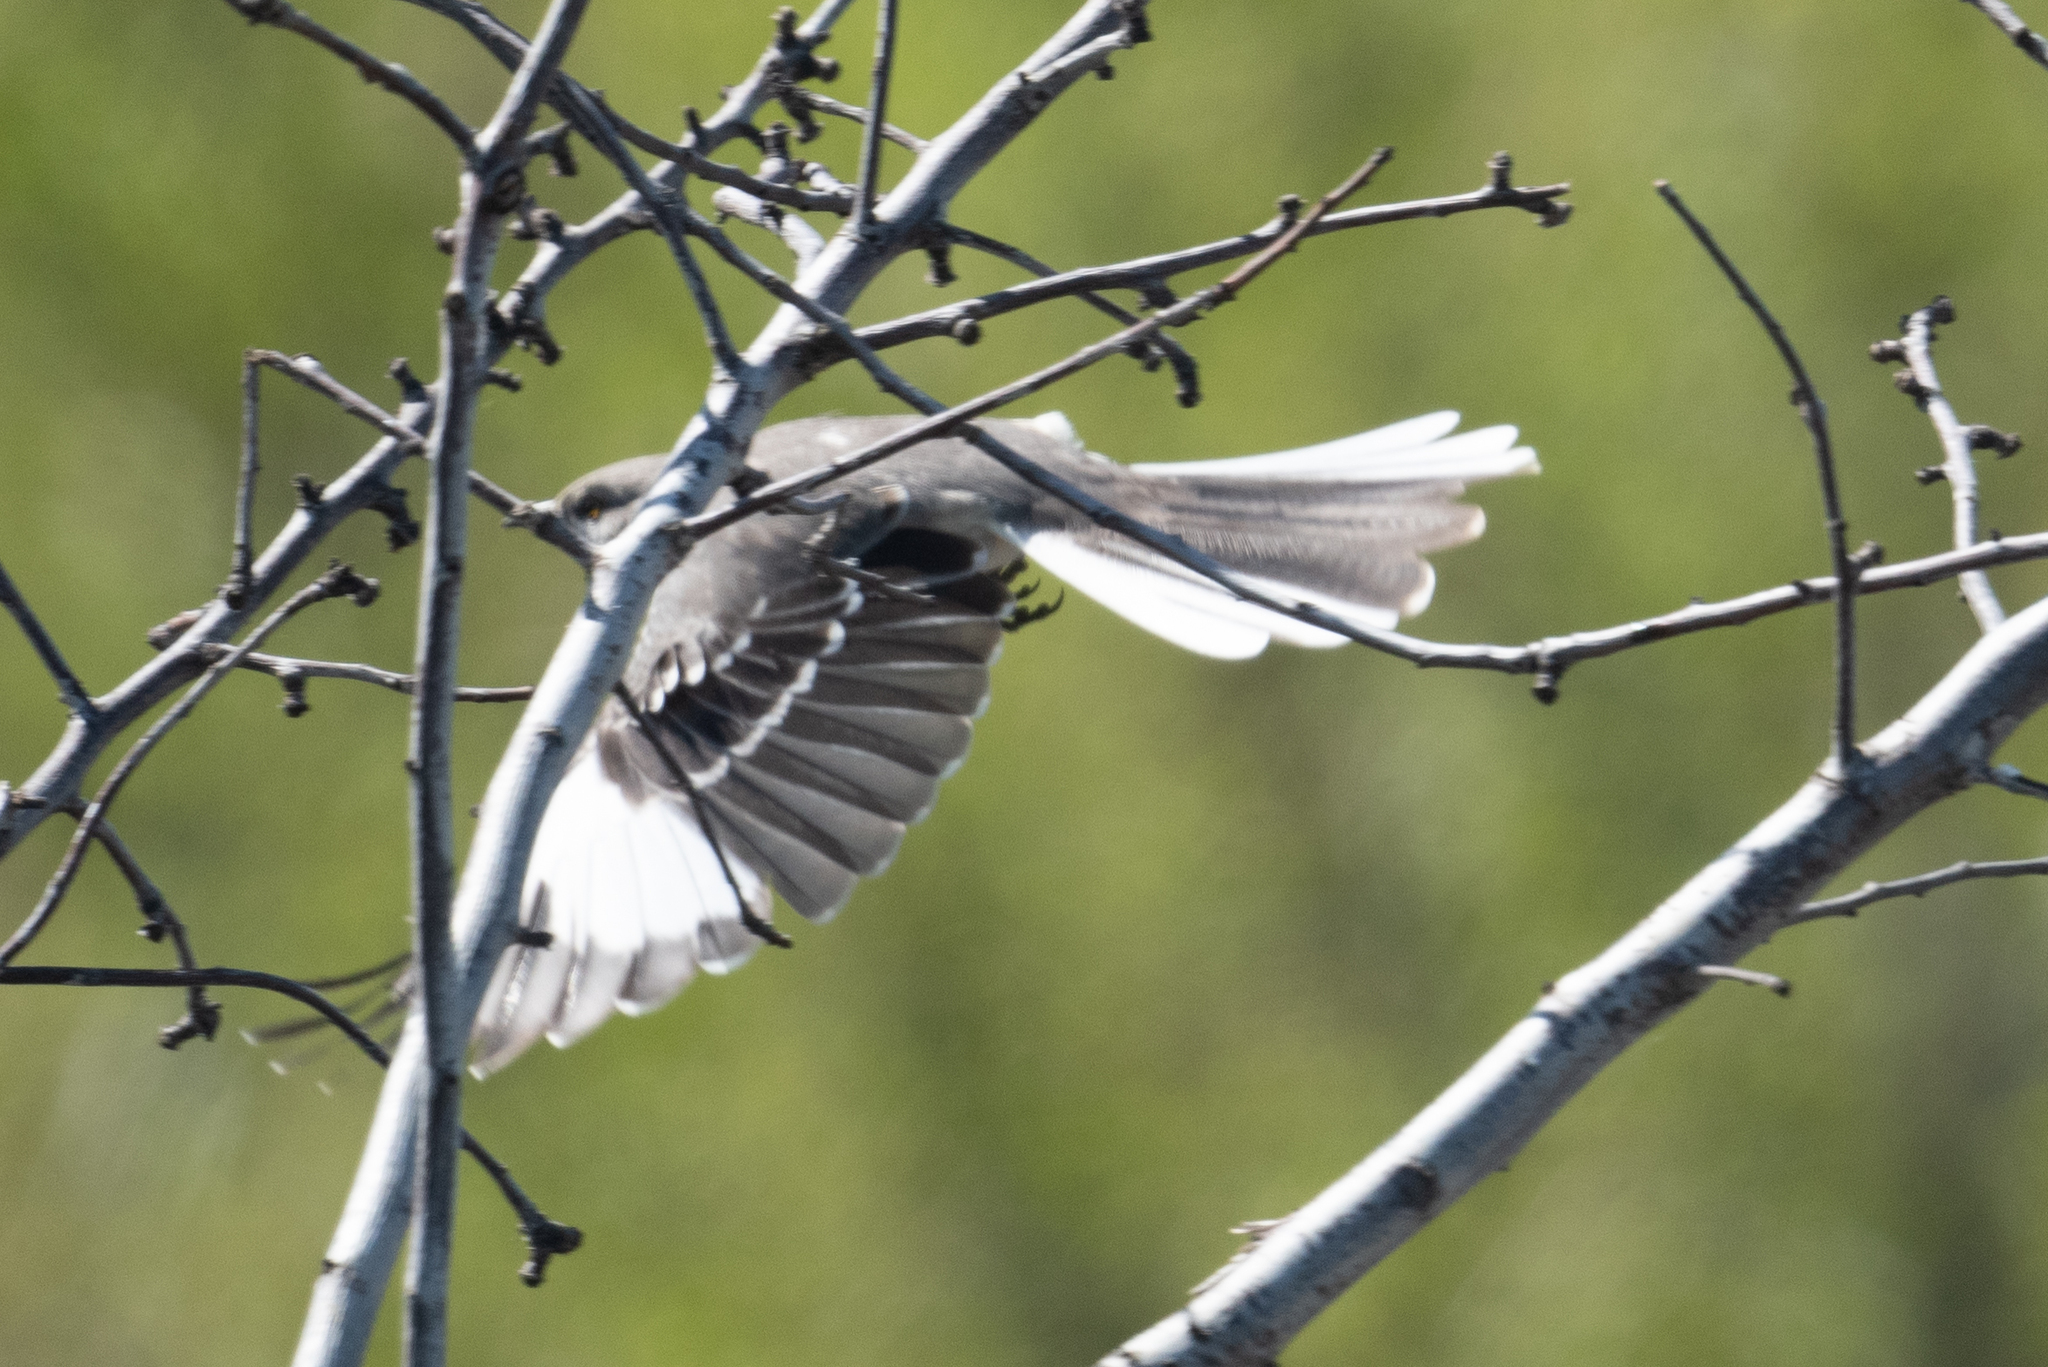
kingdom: Animalia
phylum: Chordata
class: Aves
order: Passeriformes
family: Mimidae
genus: Mimus
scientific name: Mimus polyglottos
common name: Northern mockingbird
